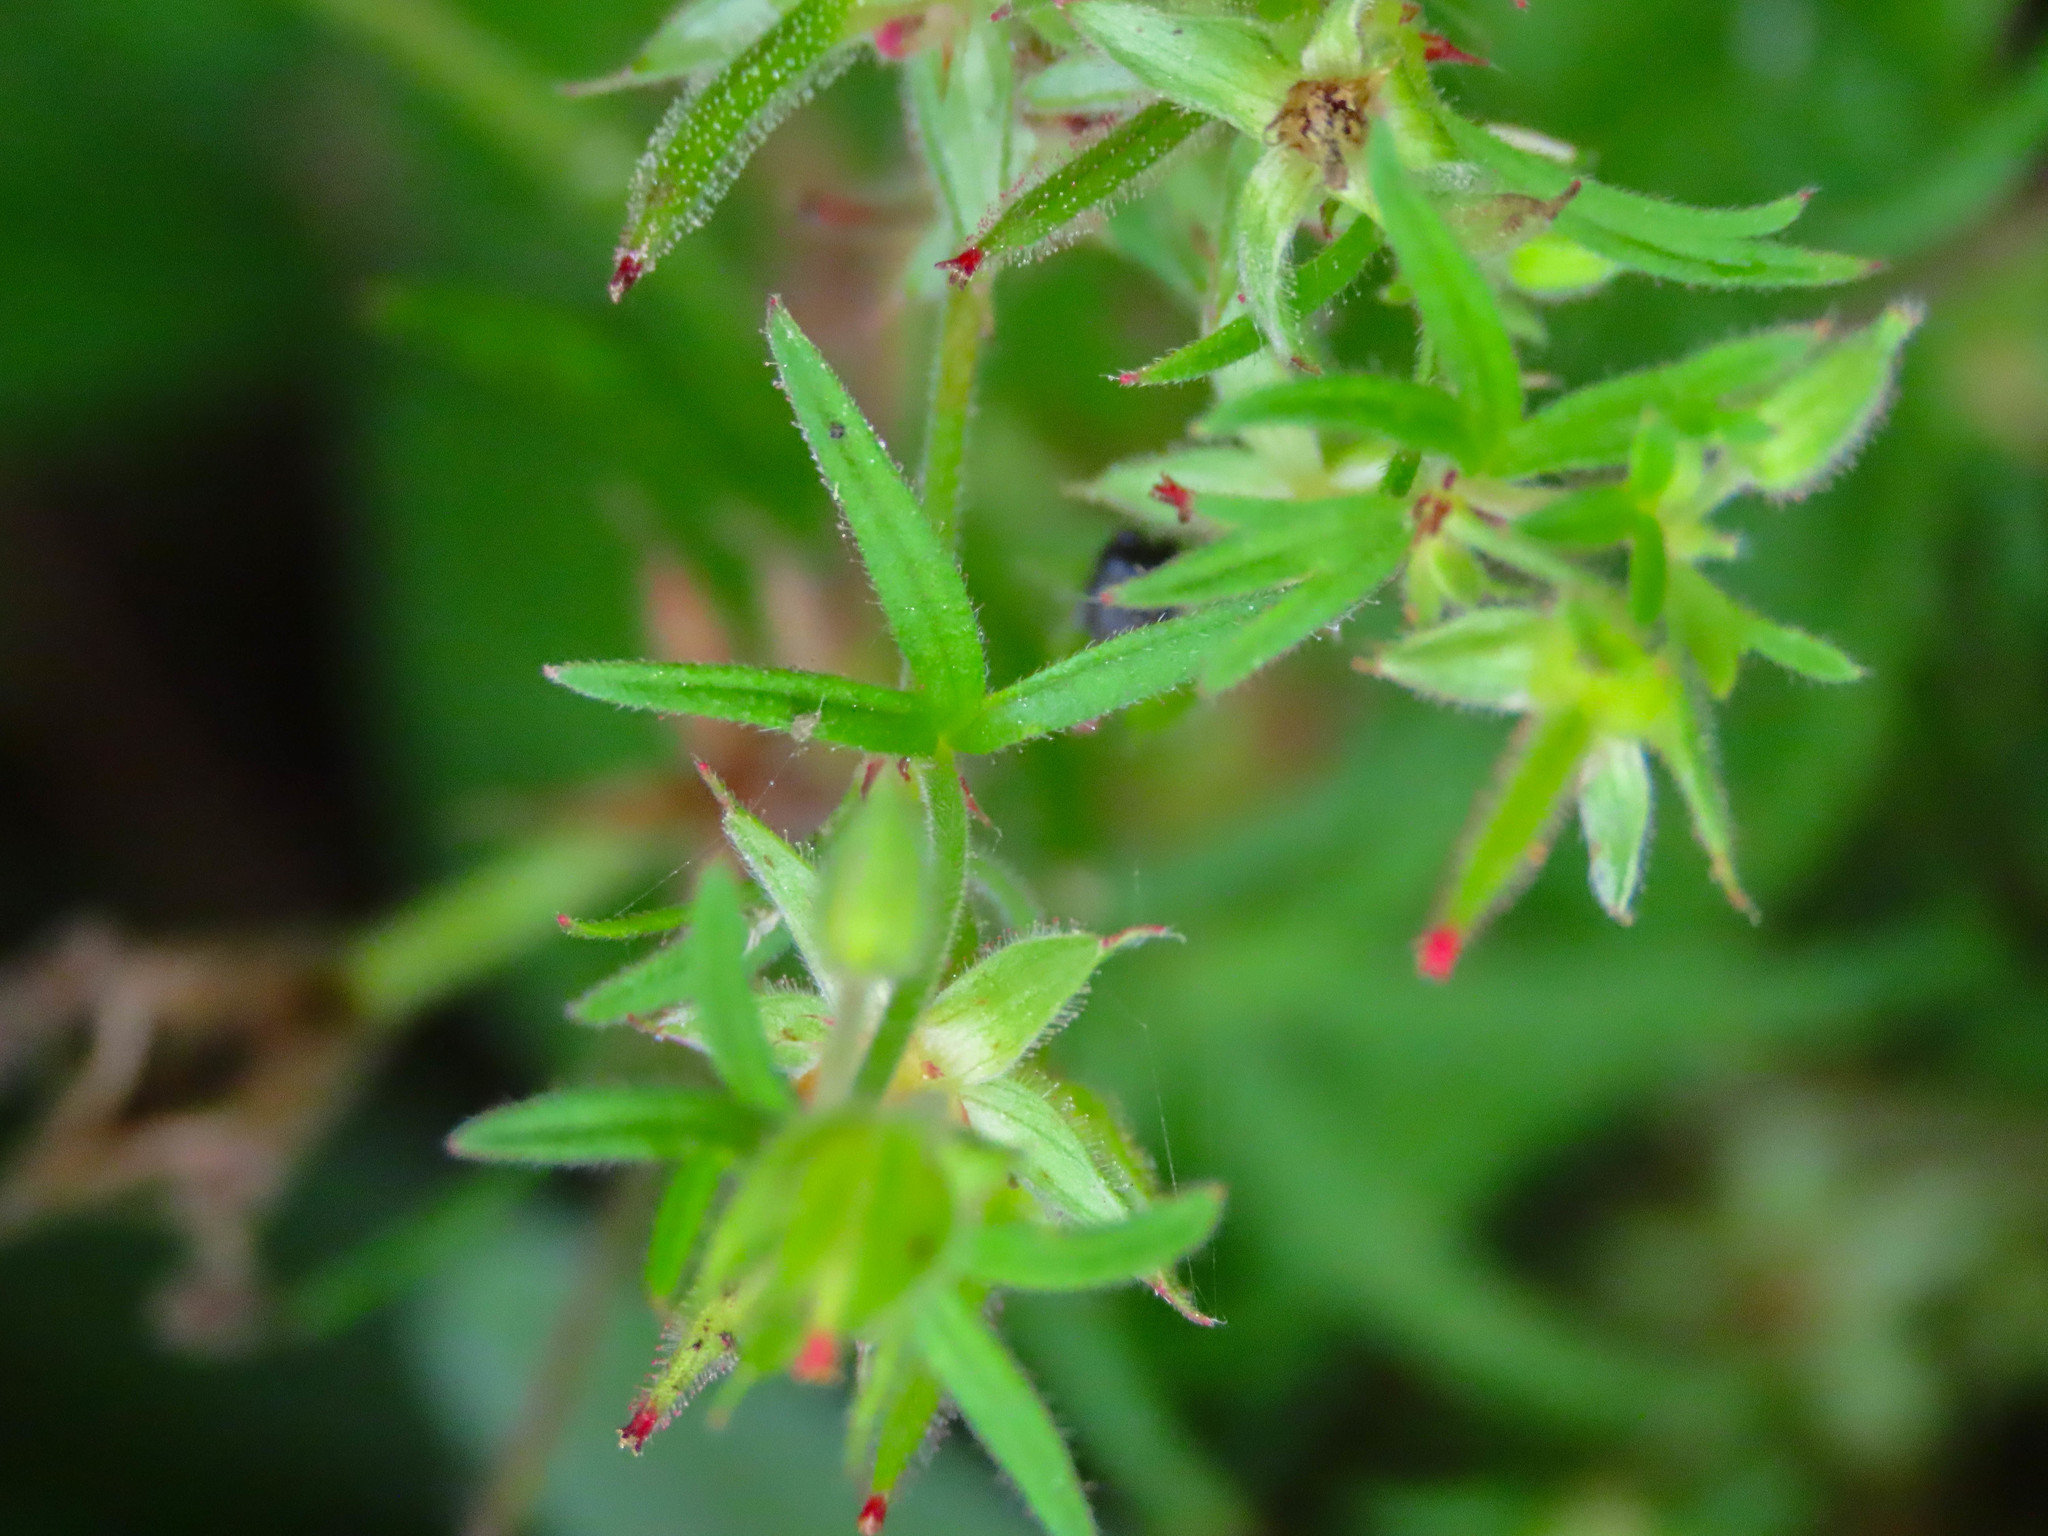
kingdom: Plantae
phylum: Tracheophyta
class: Magnoliopsida
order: Geraniales
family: Geraniaceae
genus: Geranium
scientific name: Geranium dissectum
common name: Cut-leaved crane's-bill
